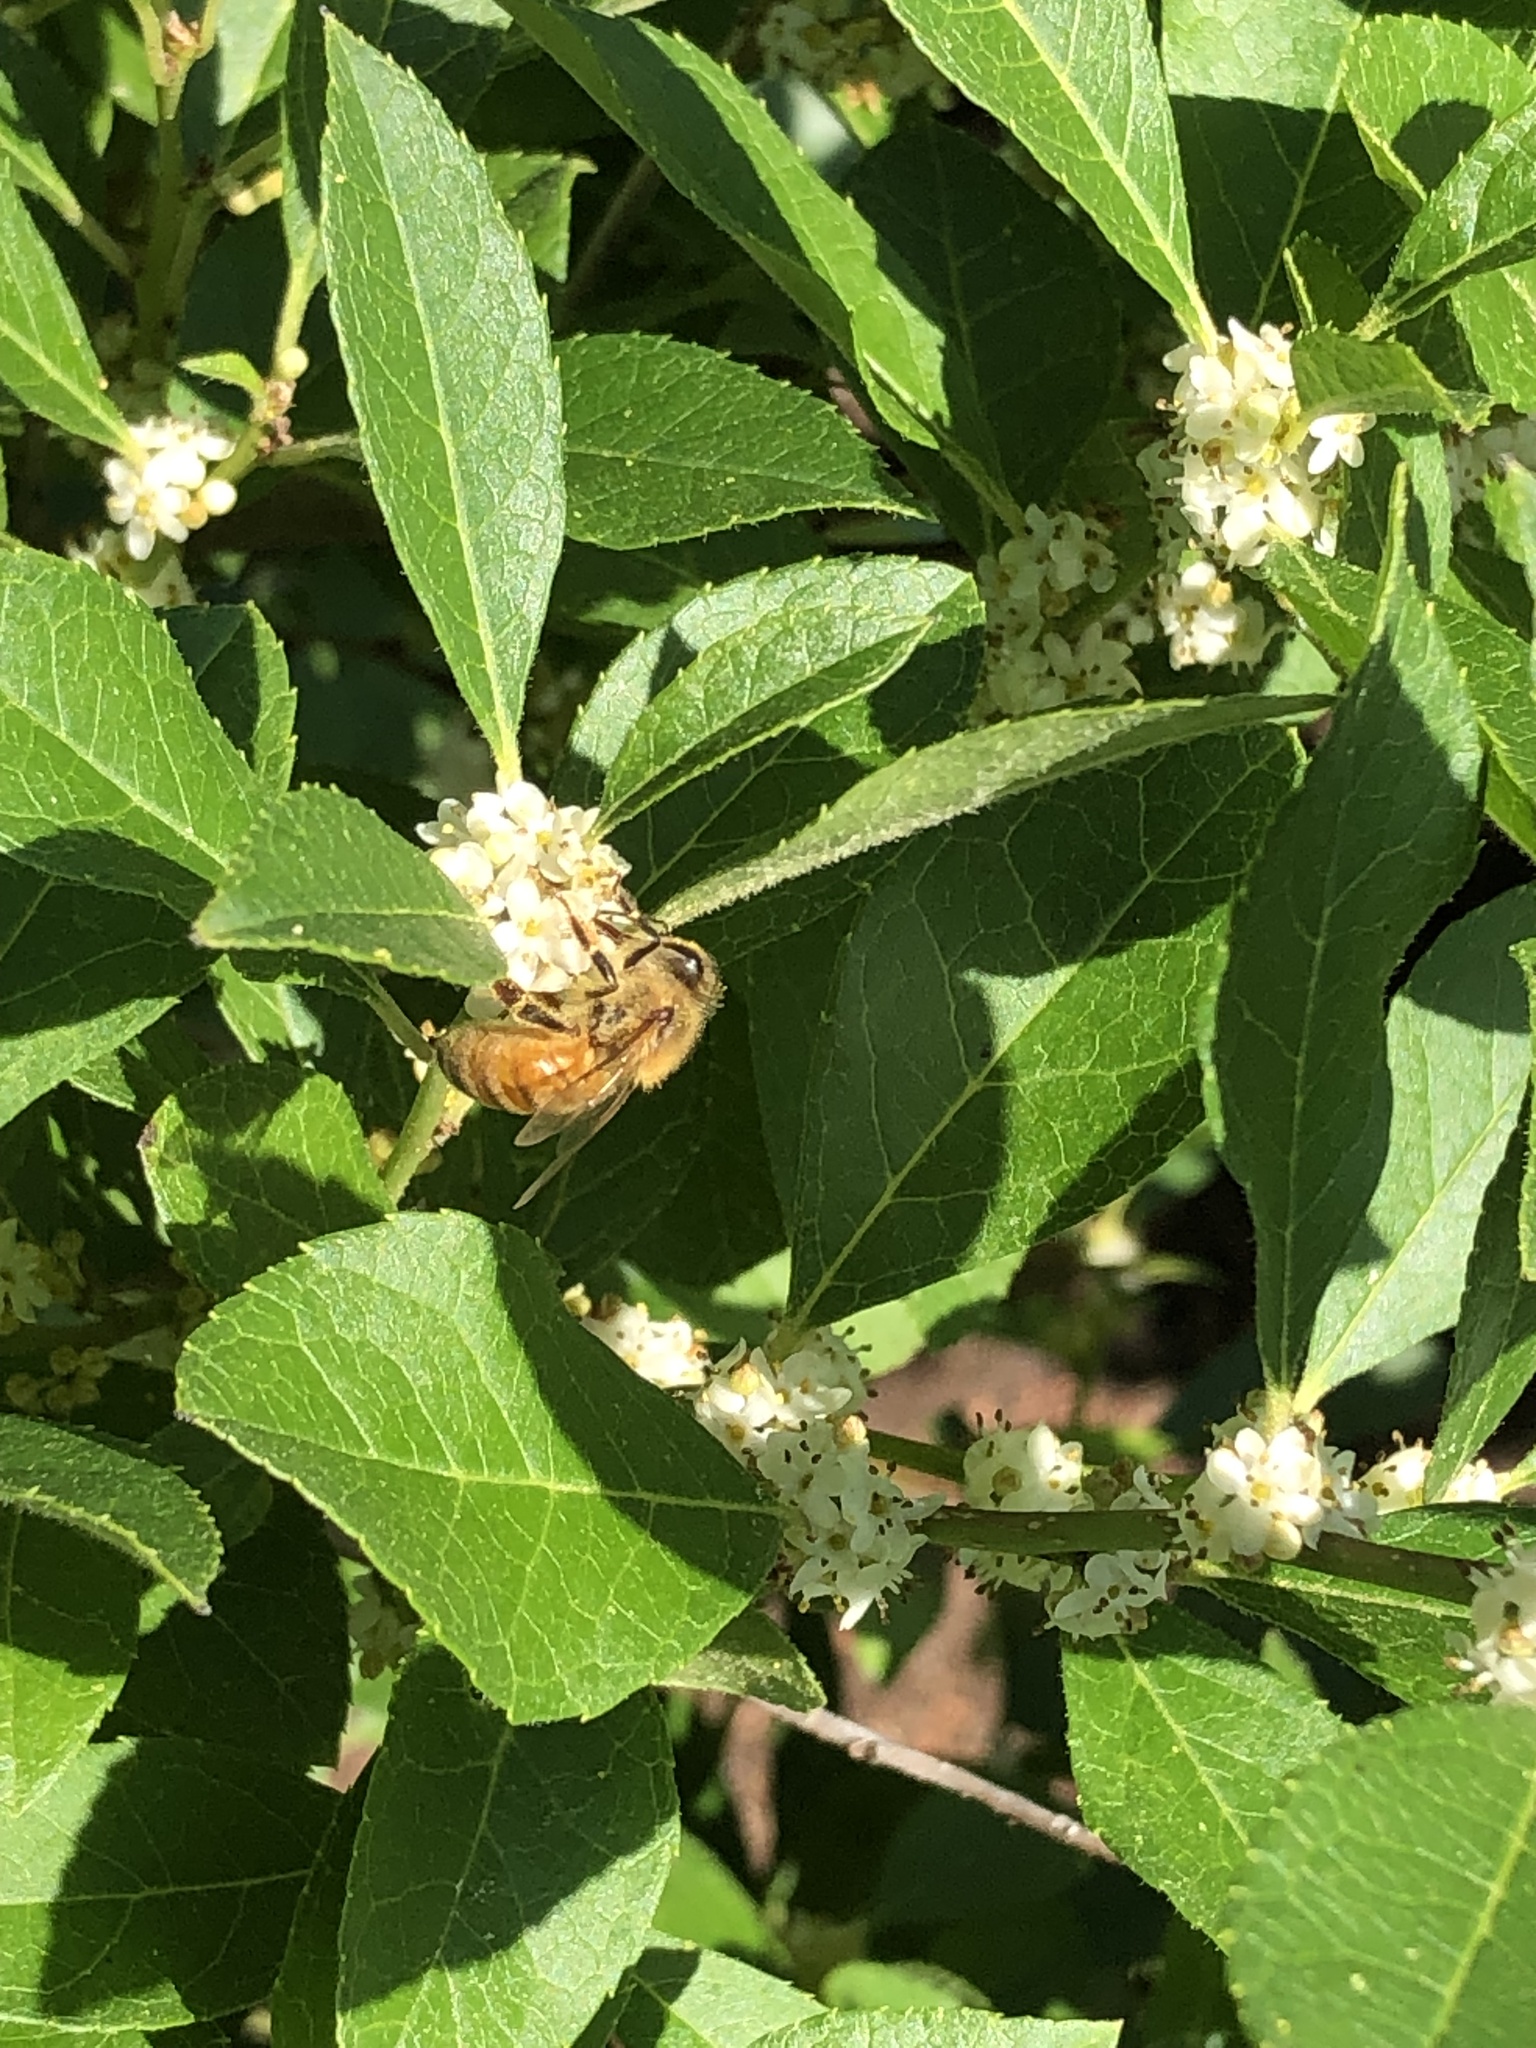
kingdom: Animalia
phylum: Arthropoda
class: Insecta
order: Hymenoptera
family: Apidae
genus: Apis
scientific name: Apis mellifera
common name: Honey bee
